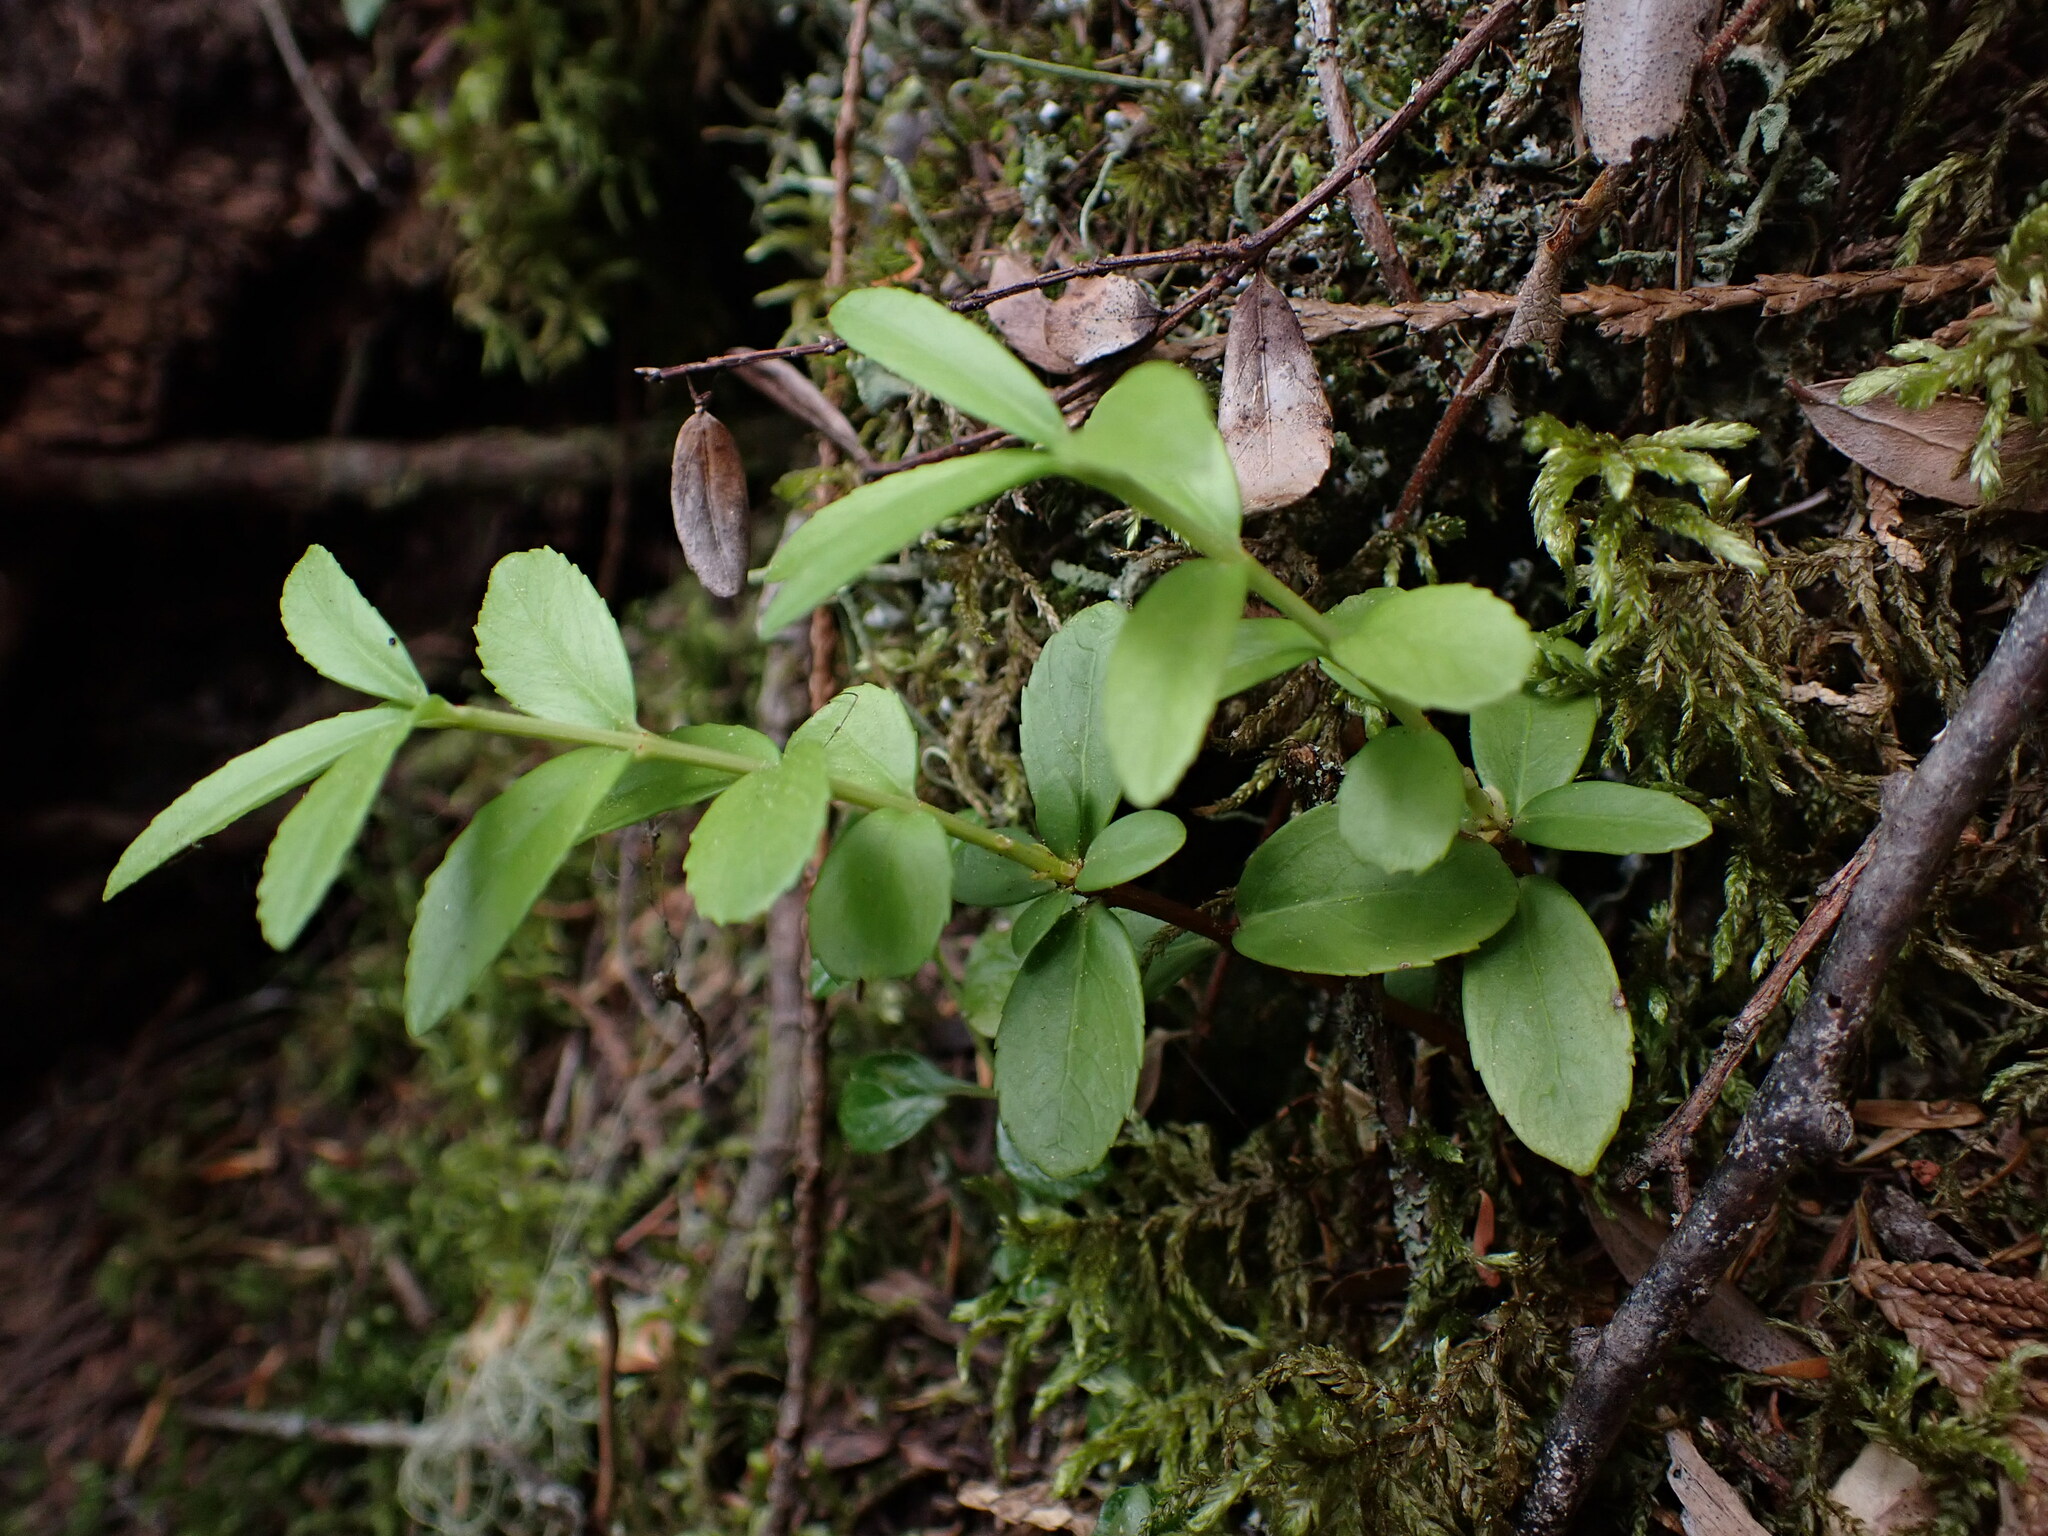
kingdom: Plantae
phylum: Tracheophyta
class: Magnoliopsida
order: Celastrales
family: Celastraceae
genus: Paxistima
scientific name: Paxistima myrsinites
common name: Mountain-lover
